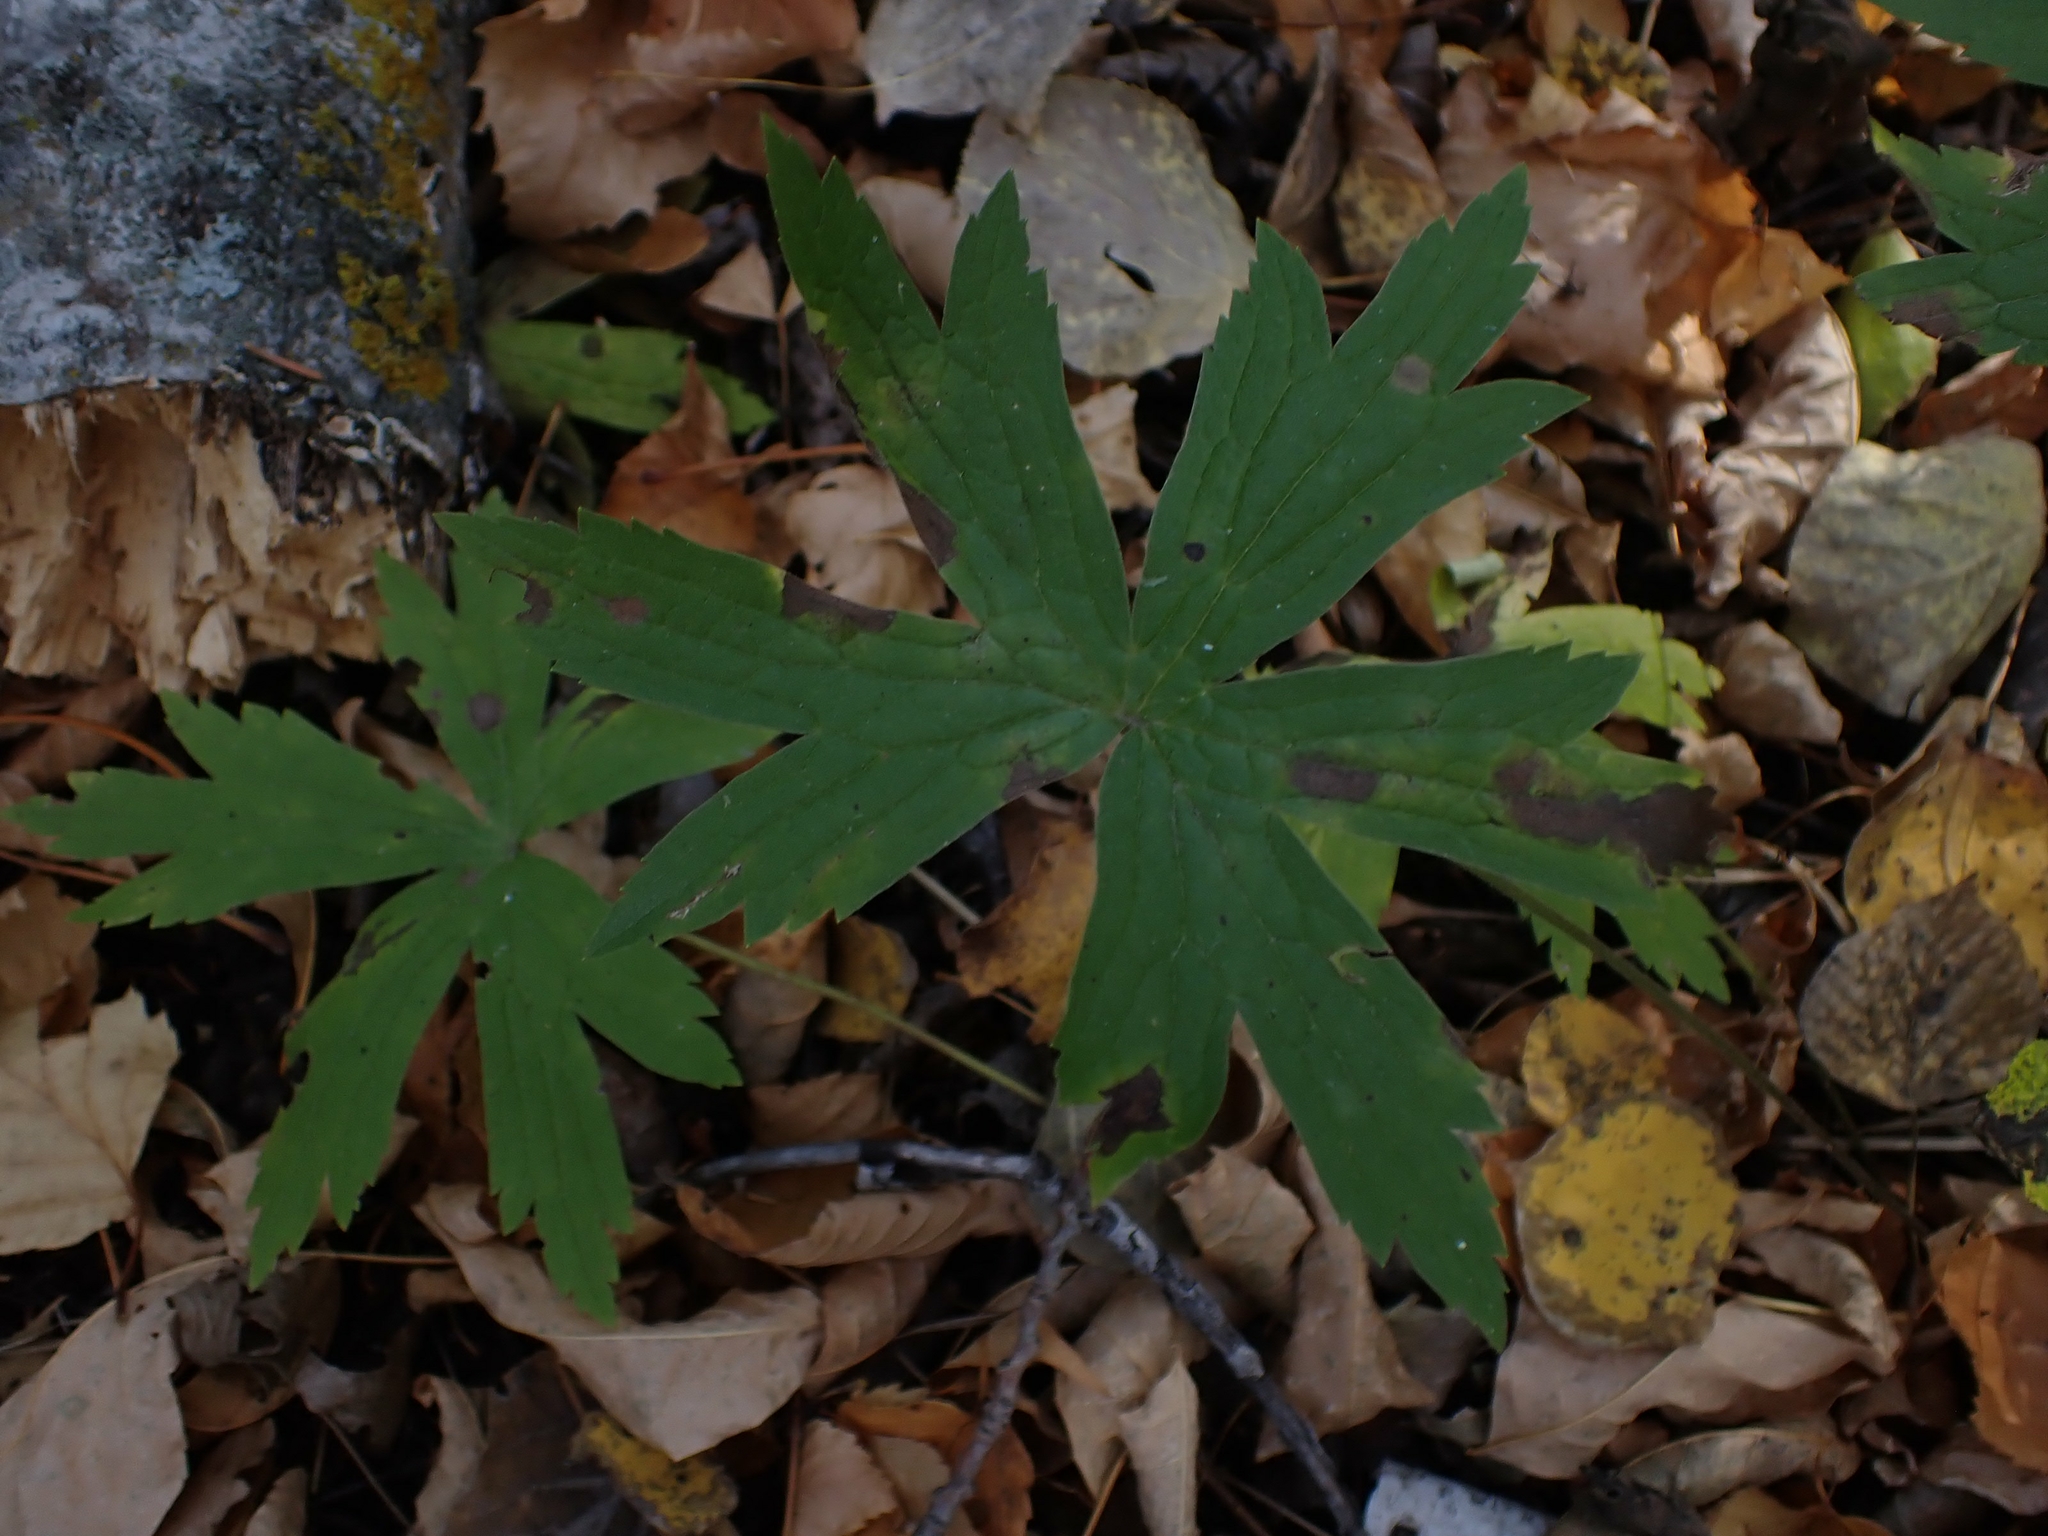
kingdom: Plantae
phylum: Tracheophyta
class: Magnoliopsida
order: Ranunculales
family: Ranunculaceae
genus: Anemonastrum
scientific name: Anemonastrum canadense
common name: Canada anemone
